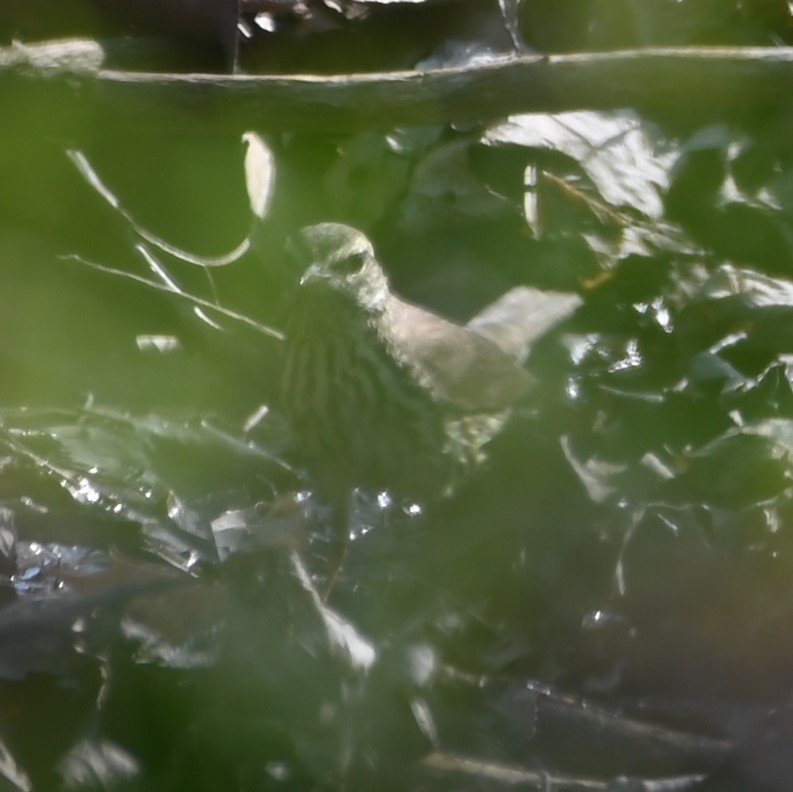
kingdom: Animalia
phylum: Chordata
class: Aves
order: Passeriformes
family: Parulidae
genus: Parkesia
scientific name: Parkesia noveboracensis
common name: Northern waterthrush
